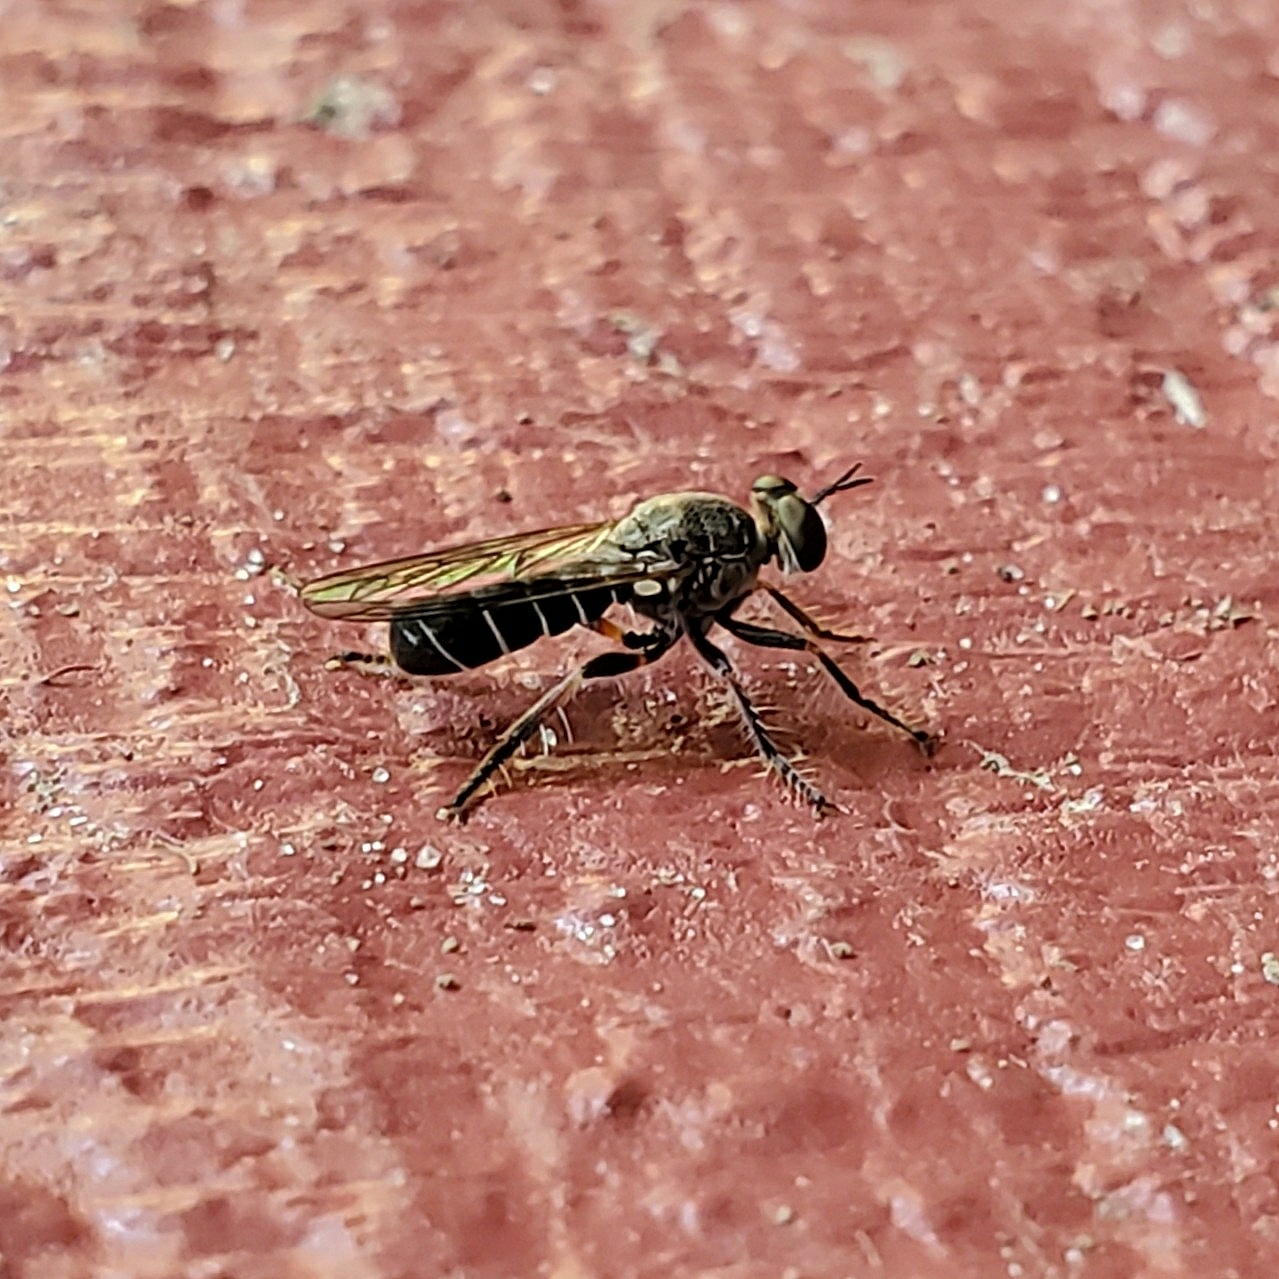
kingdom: Animalia
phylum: Arthropoda
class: Insecta
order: Diptera
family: Asilidae
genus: Atomosia
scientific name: Atomosia puella
